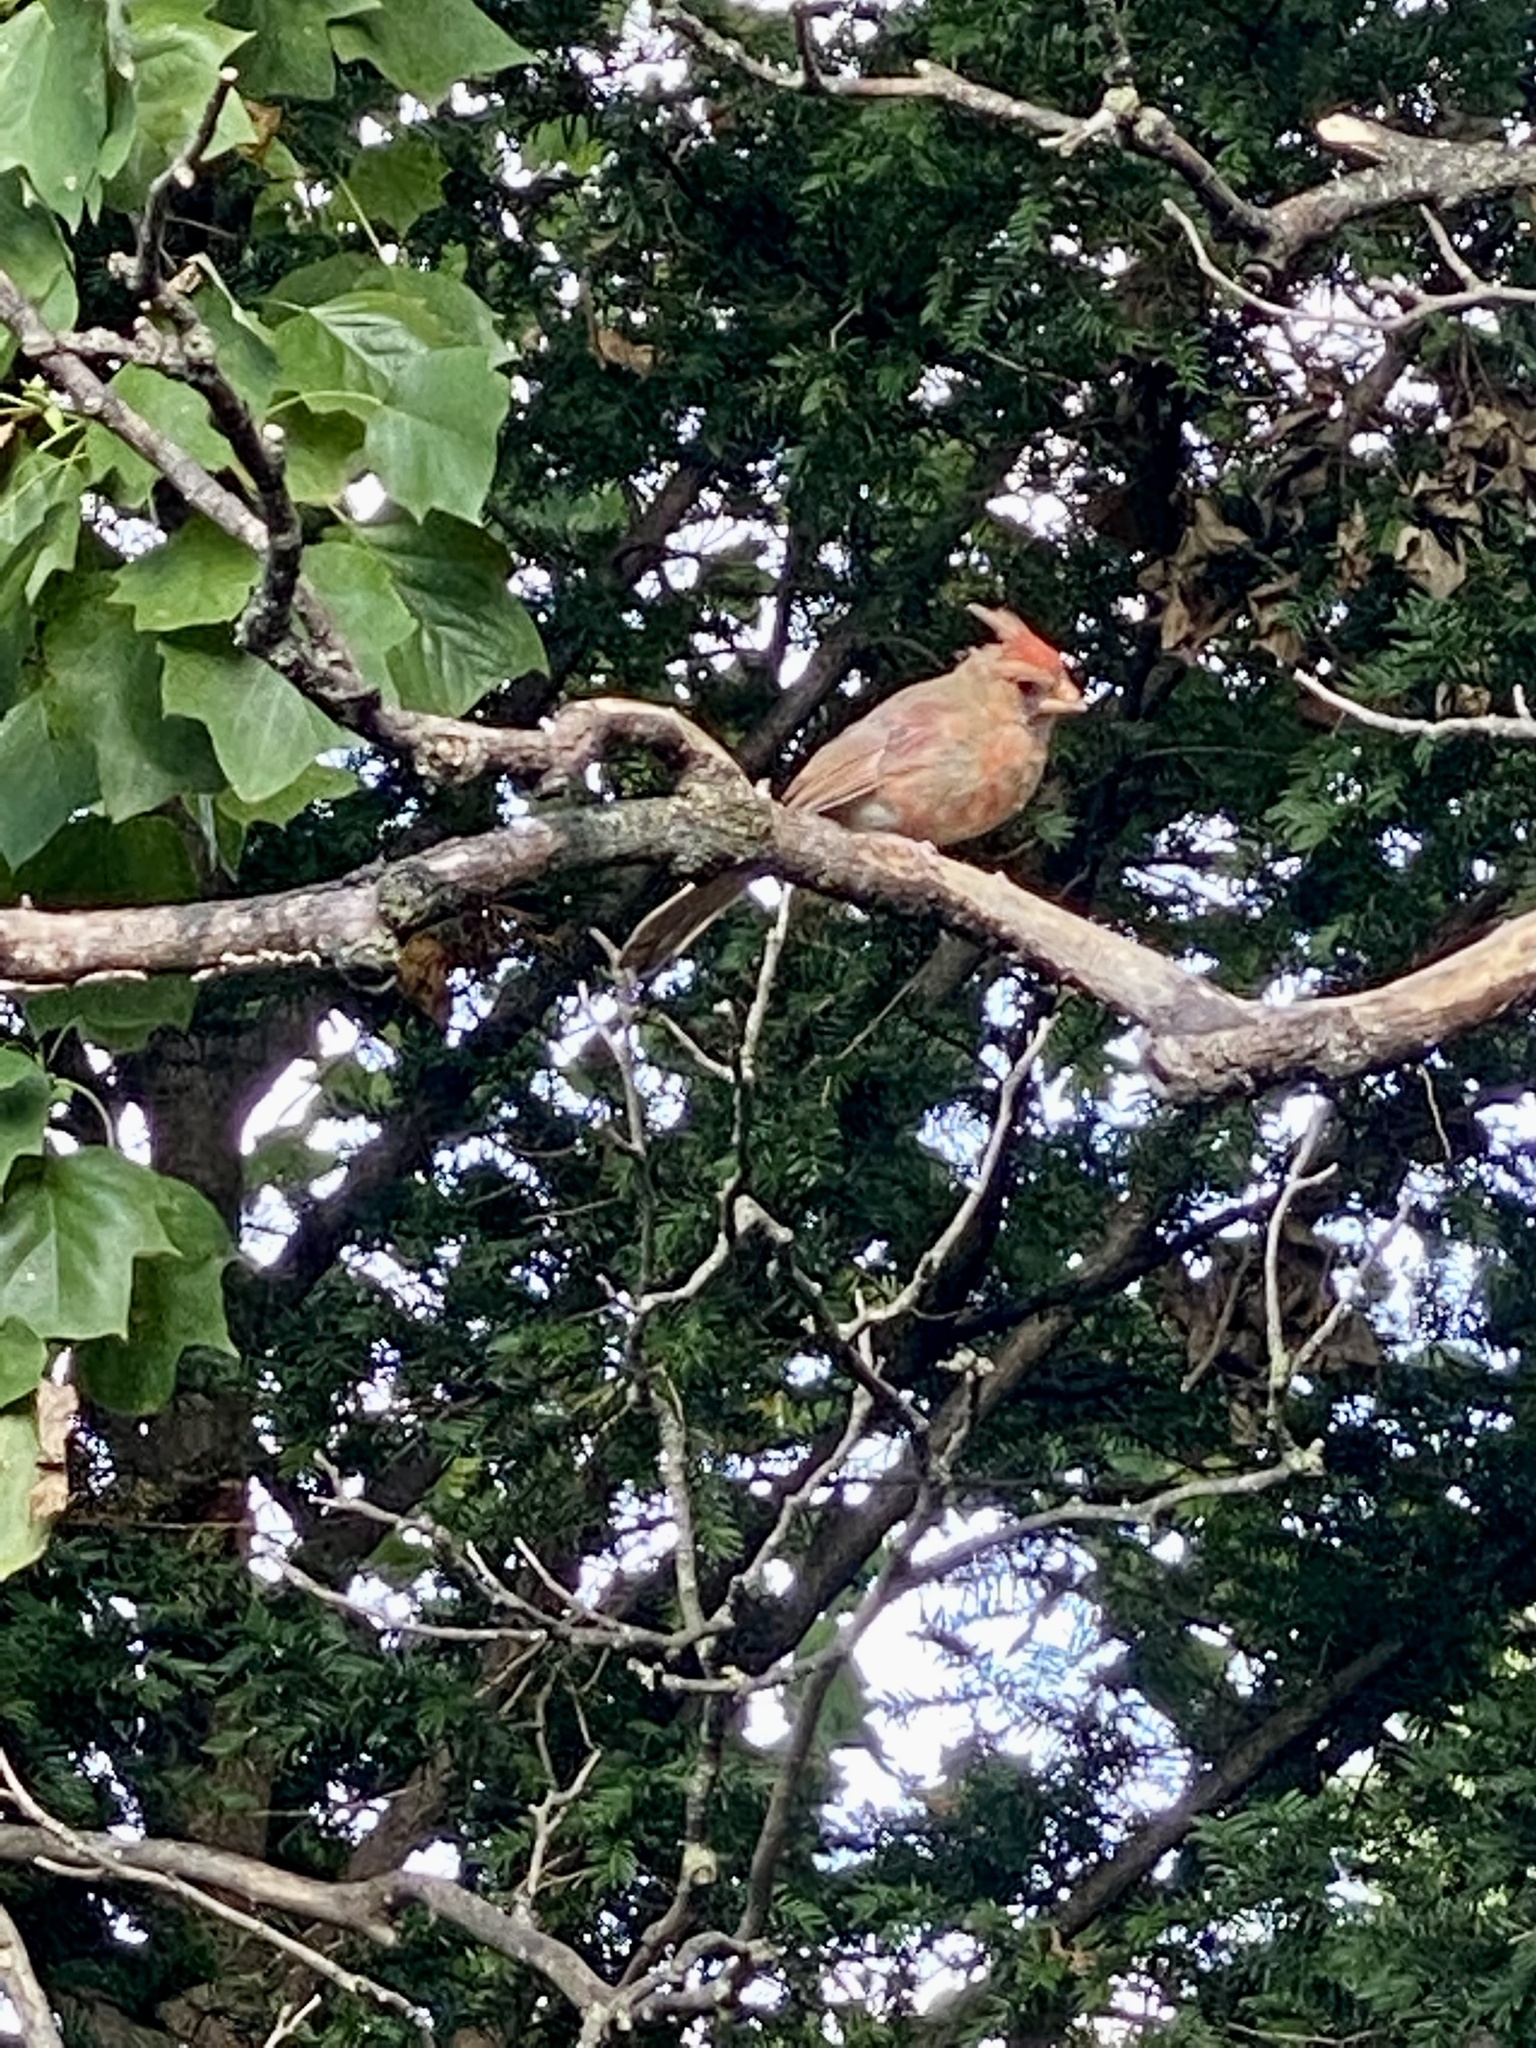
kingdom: Animalia
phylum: Chordata
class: Aves
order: Passeriformes
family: Cardinalidae
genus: Cardinalis
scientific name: Cardinalis cardinalis
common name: Northern cardinal
